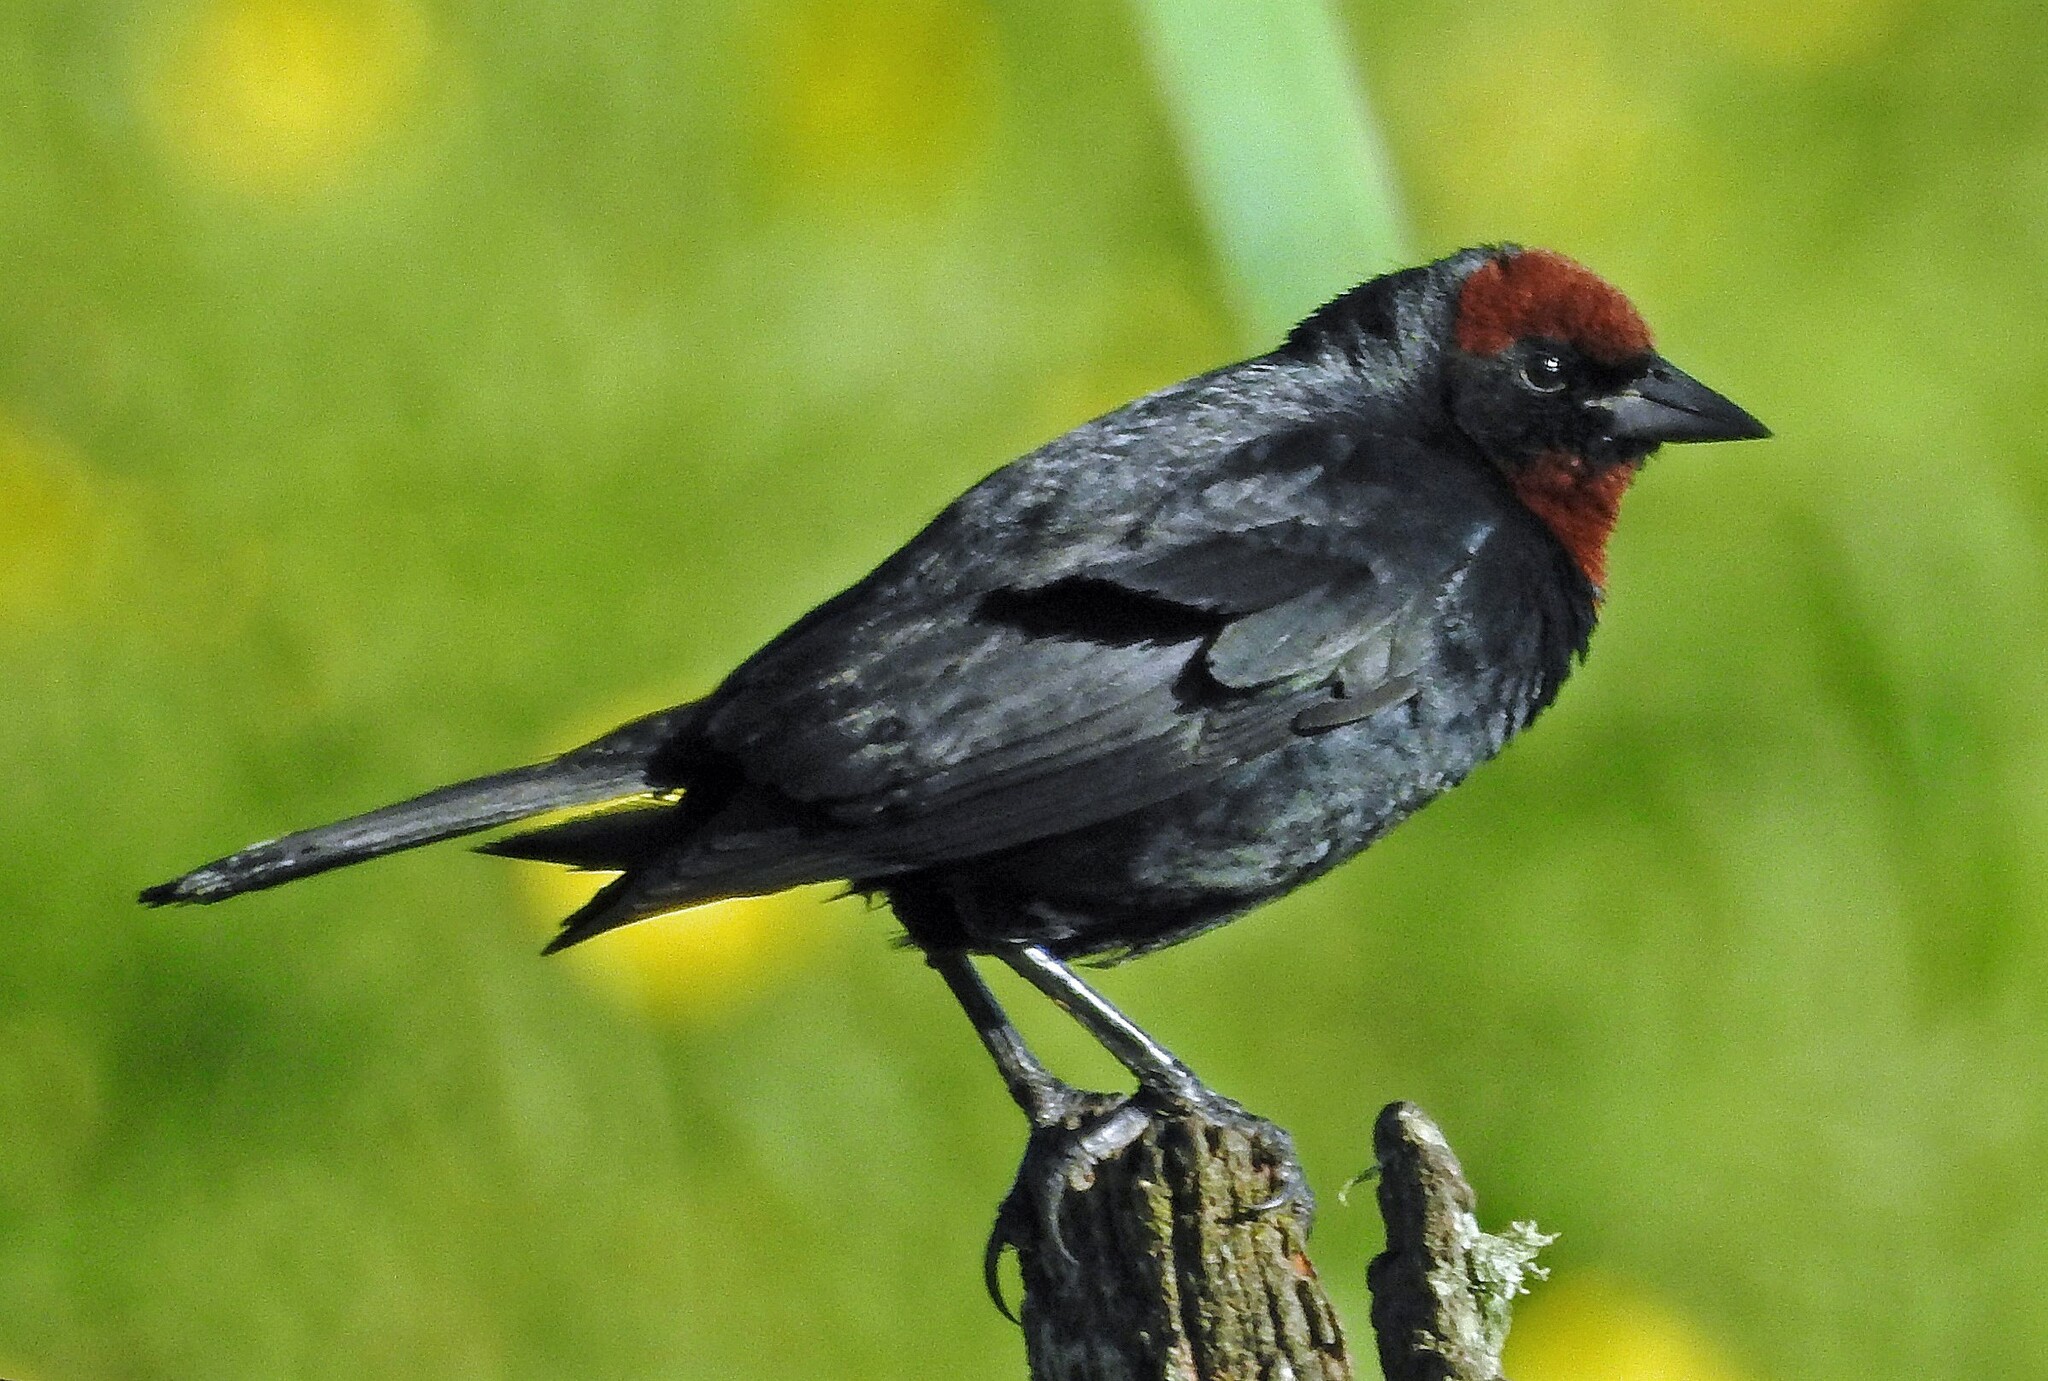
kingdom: Animalia
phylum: Chordata
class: Aves
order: Passeriformes
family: Icteridae
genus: Chrysomus
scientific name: Chrysomus ruficapillus
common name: Chestnut-capped blackbird
